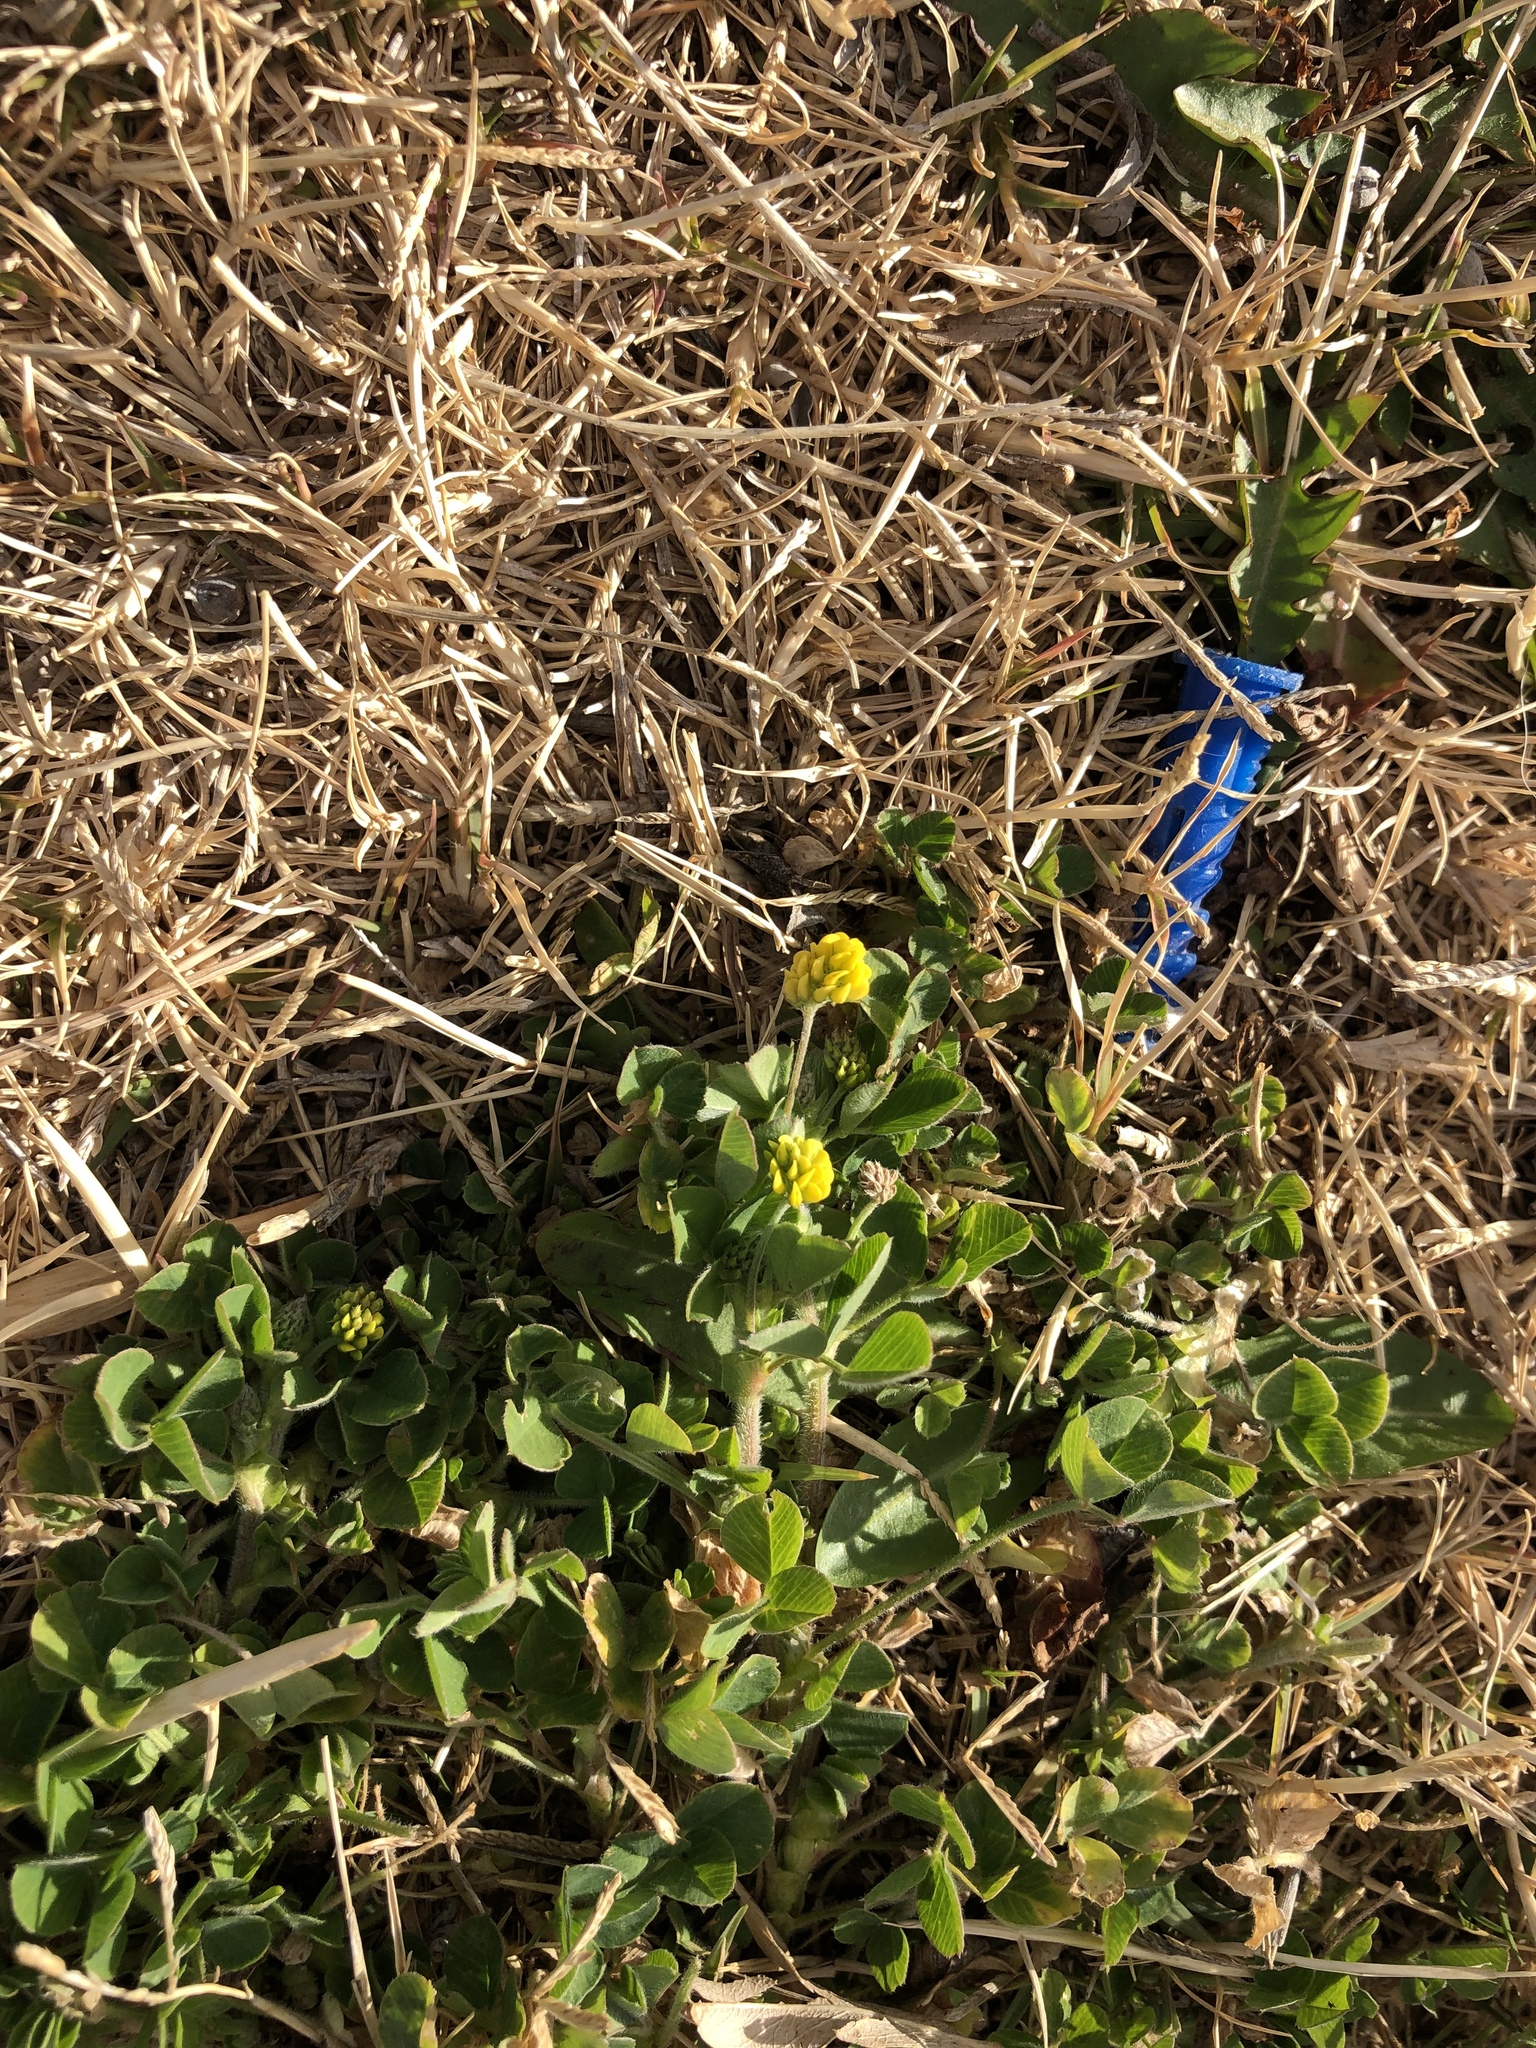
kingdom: Plantae
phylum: Tracheophyta
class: Magnoliopsida
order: Fabales
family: Fabaceae
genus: Medicago
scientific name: Medicago lupulina
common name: Black medick
